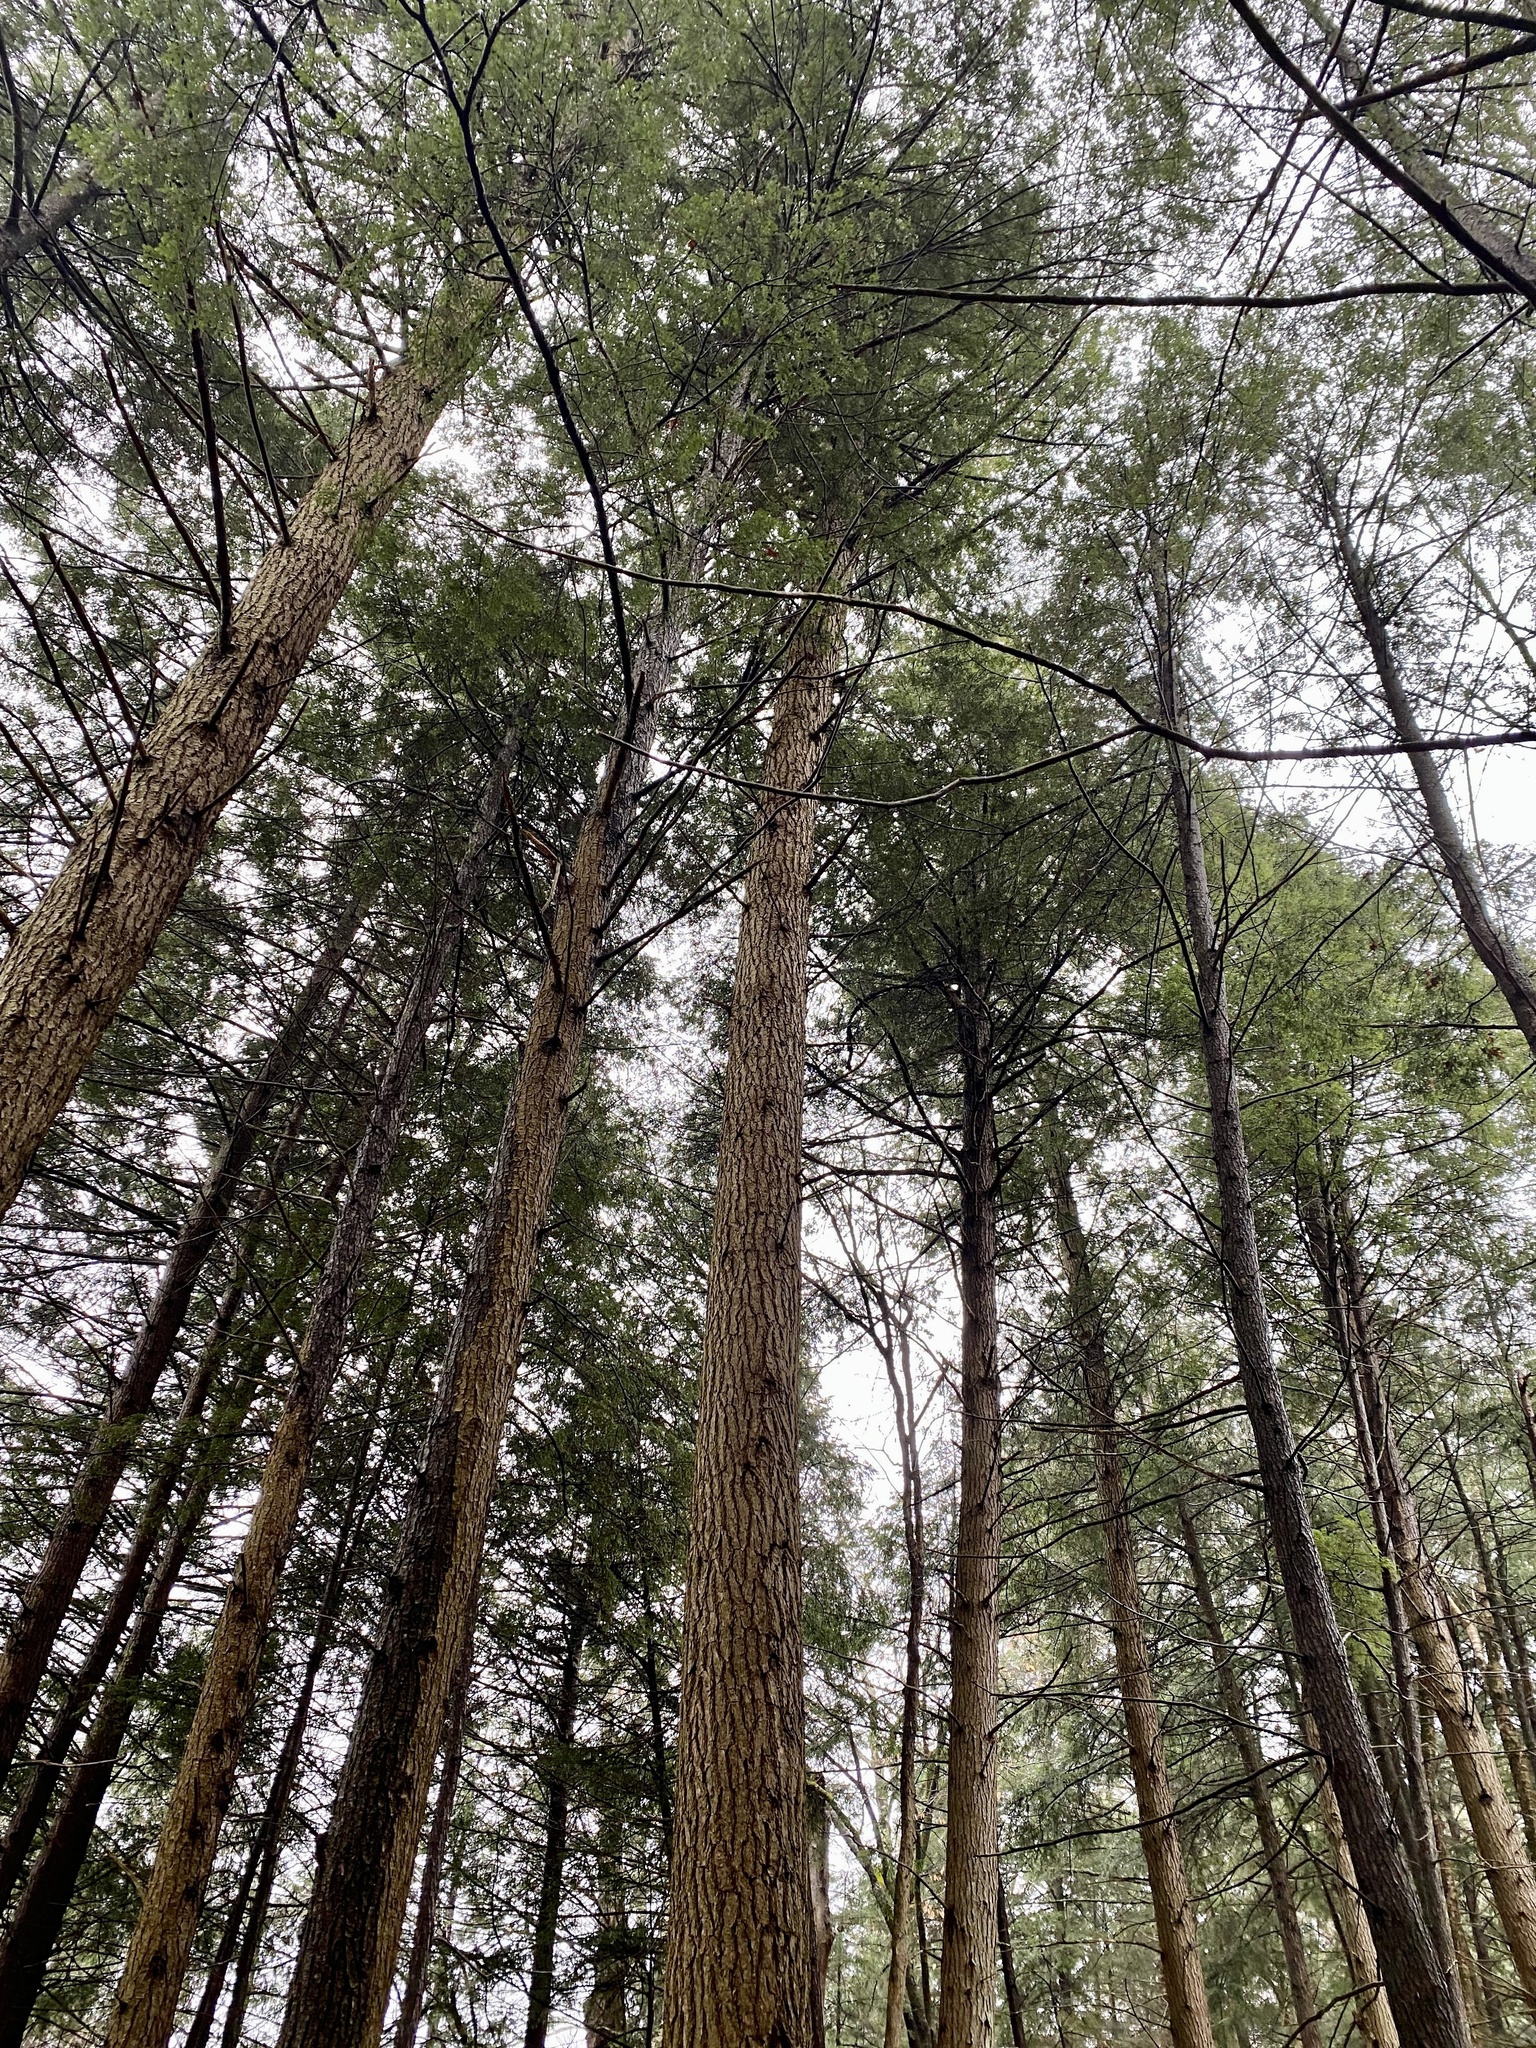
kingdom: Plantae
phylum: Tracheophyta
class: Pinopsida
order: Pinales
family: Pinaceae
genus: Tsuga
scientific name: Tsuga canadensis
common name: Eastern hemlock
